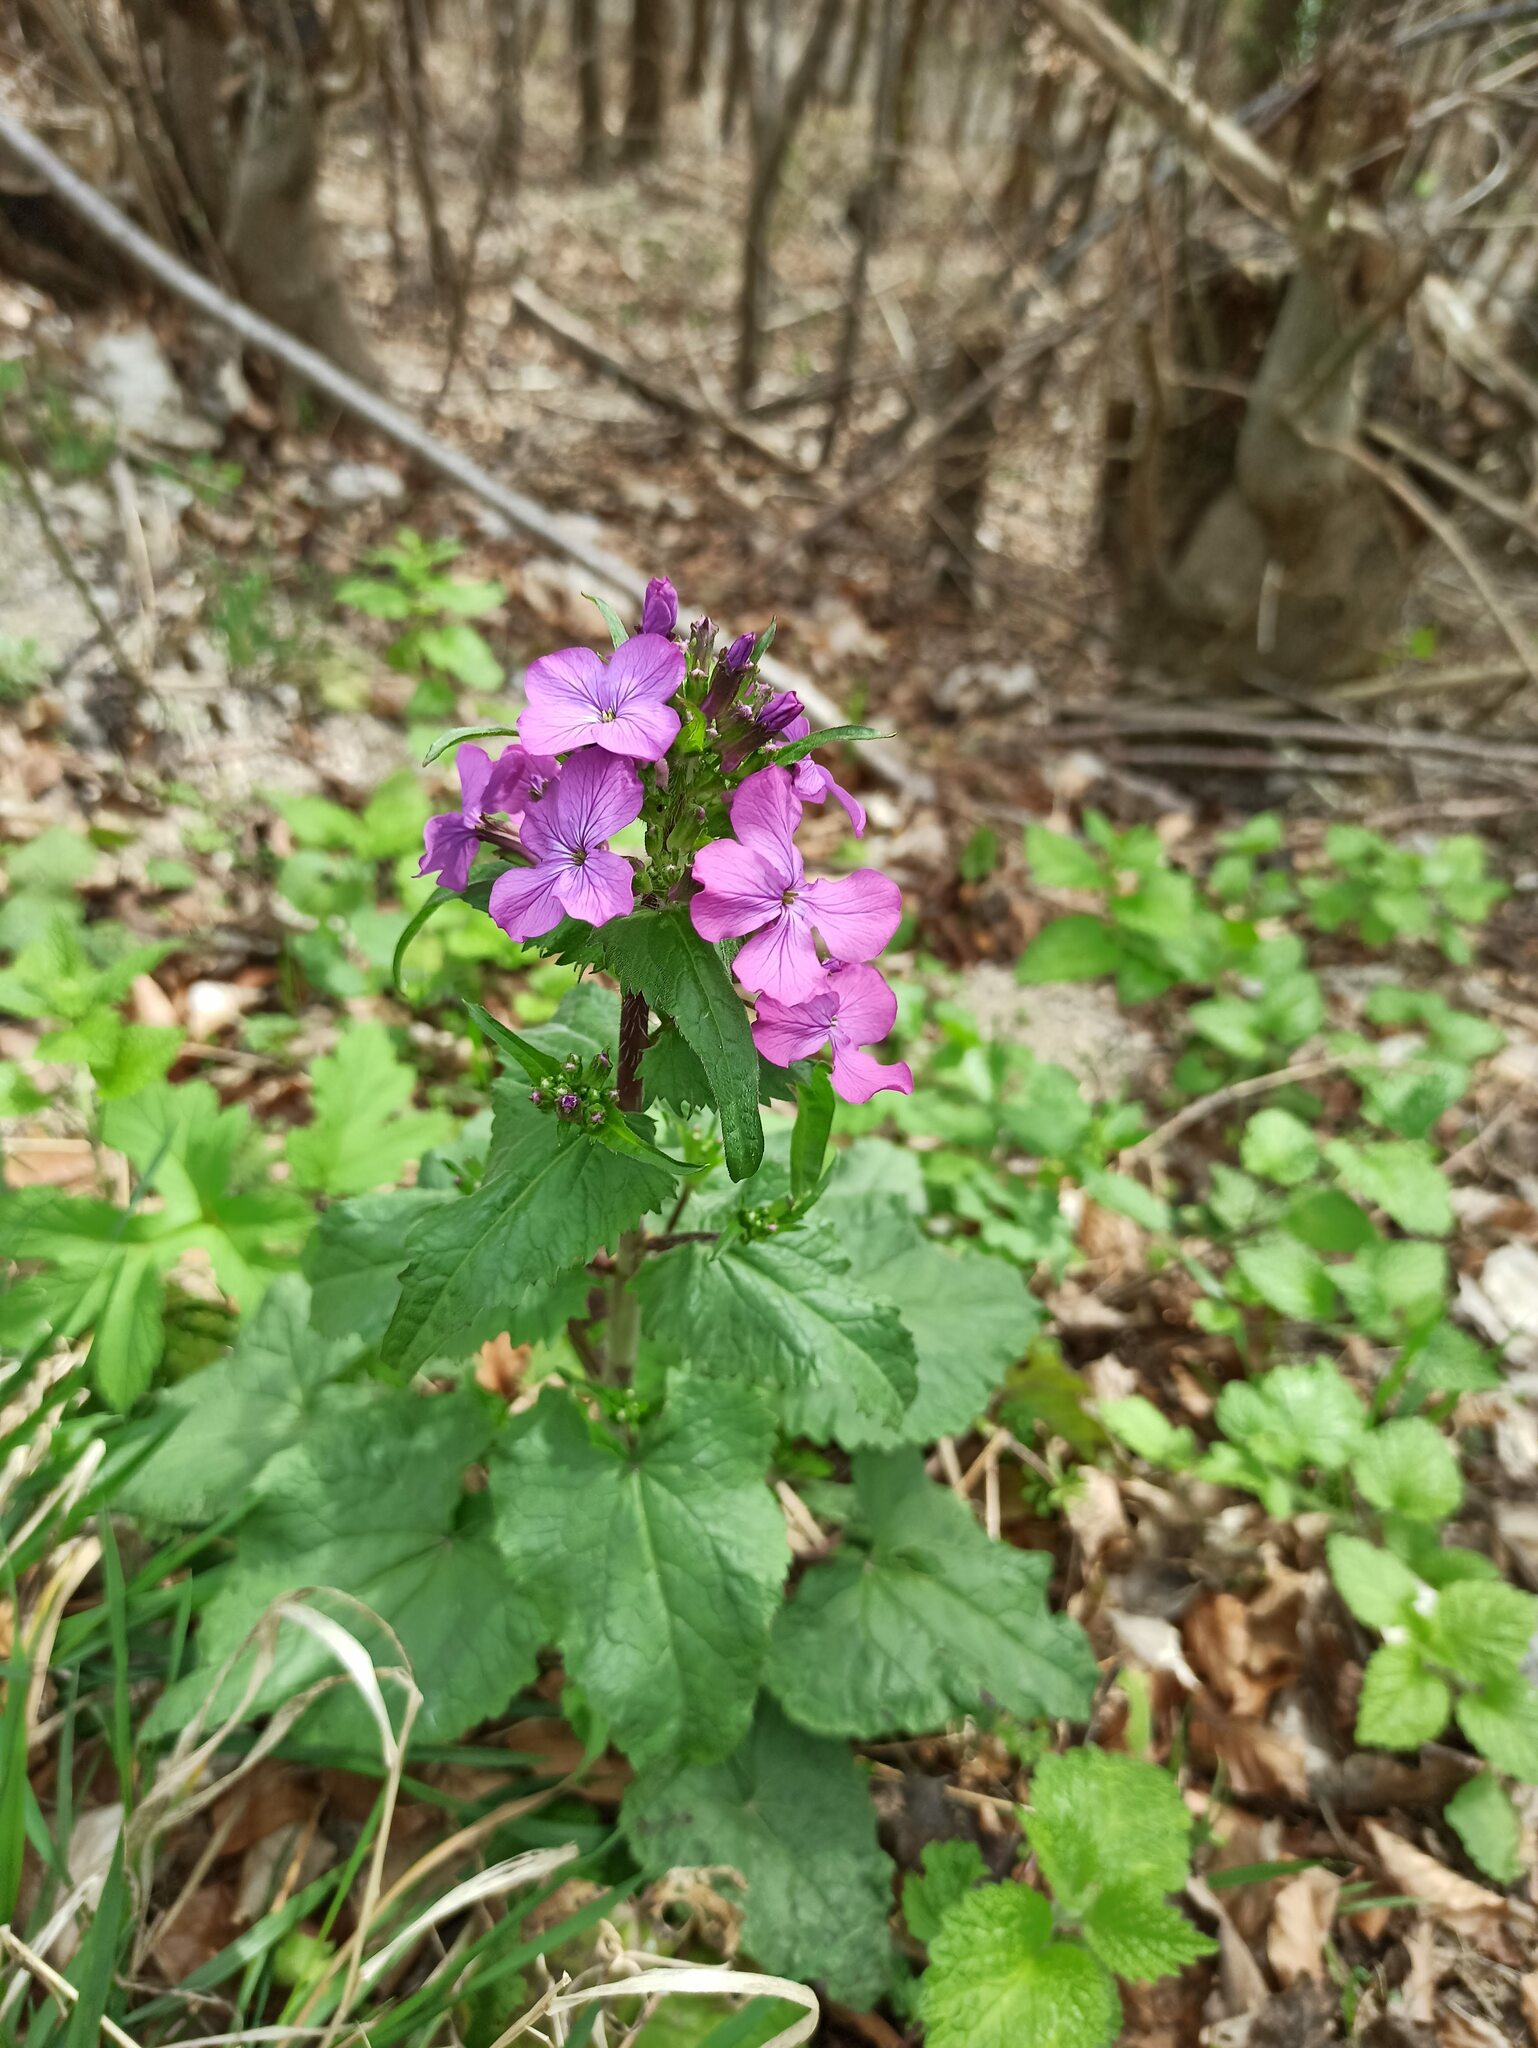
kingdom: Plantae
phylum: Tracheophyta
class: Magnoliopsida
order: Brassicales
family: Brassicaceae
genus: Lunaria
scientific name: Lunaria annua
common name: Honesty
